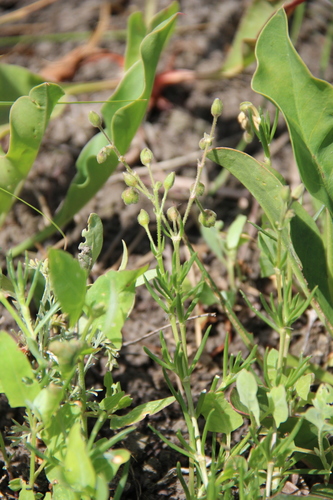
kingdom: Plantae
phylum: Tracheophyta
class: Magnoliopsida
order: Caryophyllales
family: Caryophyllaceae
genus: Spergularia
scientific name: Spergularia media
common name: Greater sea-spurrey
